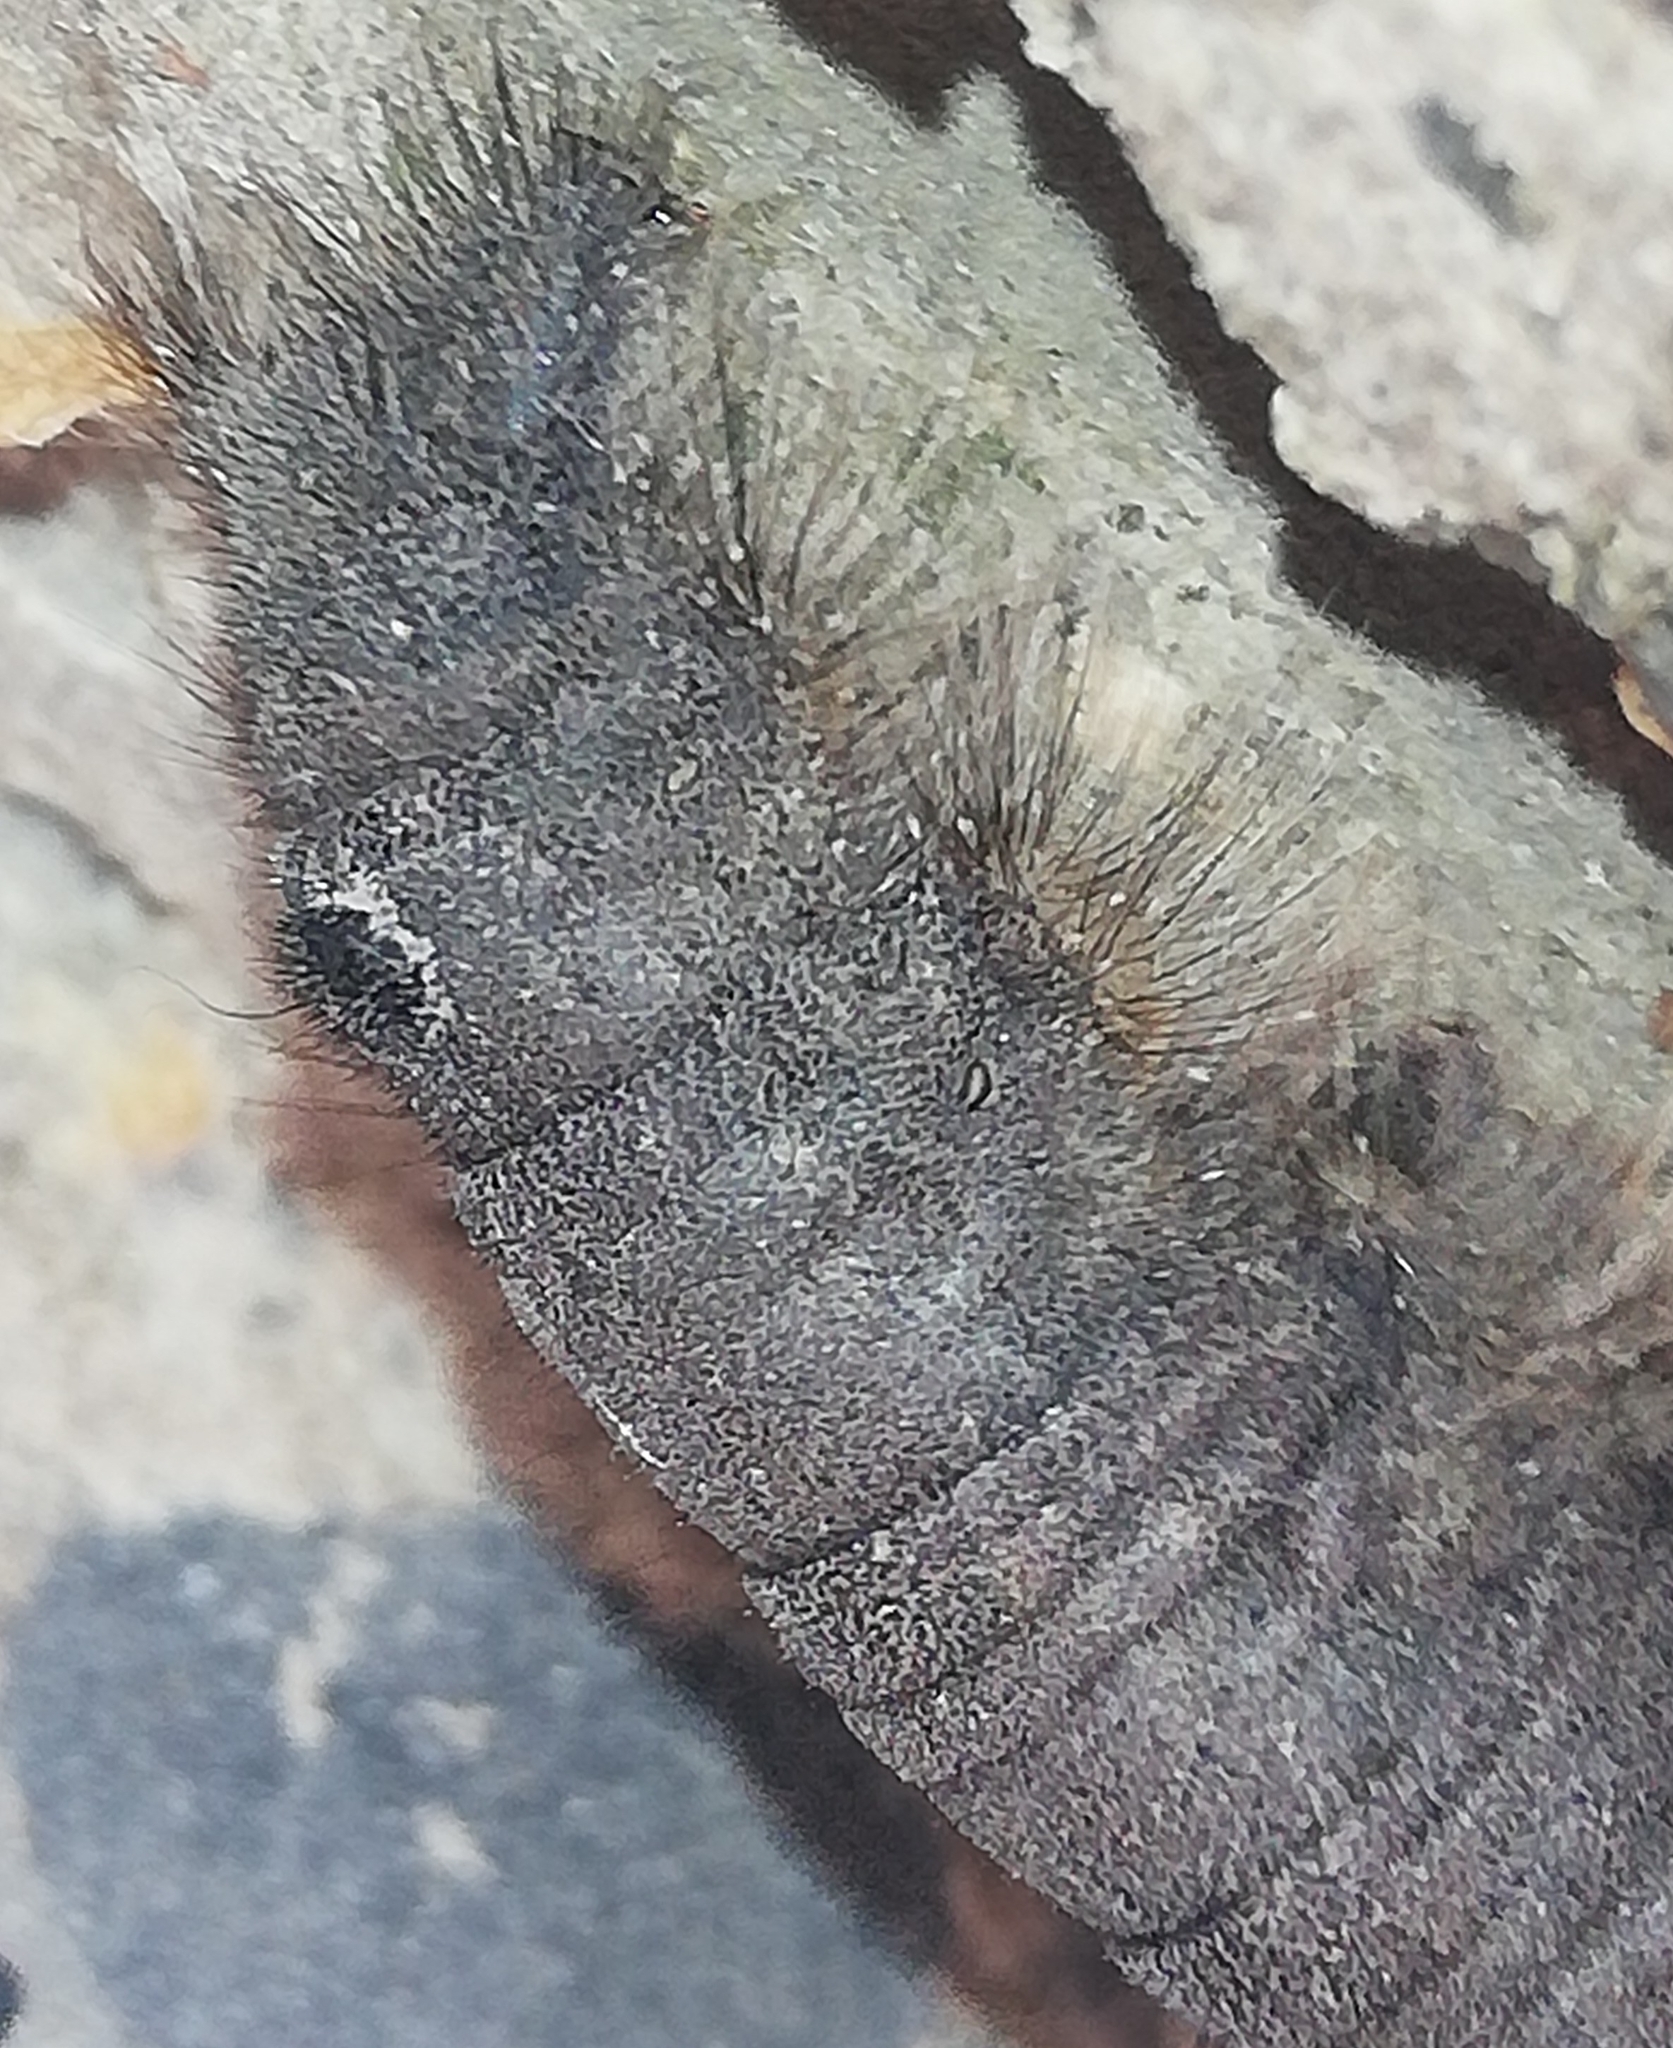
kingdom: Animalia
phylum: Arthropoda
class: Insecta
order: Lepidoptera
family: Lasiocampidae
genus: Phyllodesma
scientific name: Phyllodesma tremulifolia
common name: Aspen lappet
